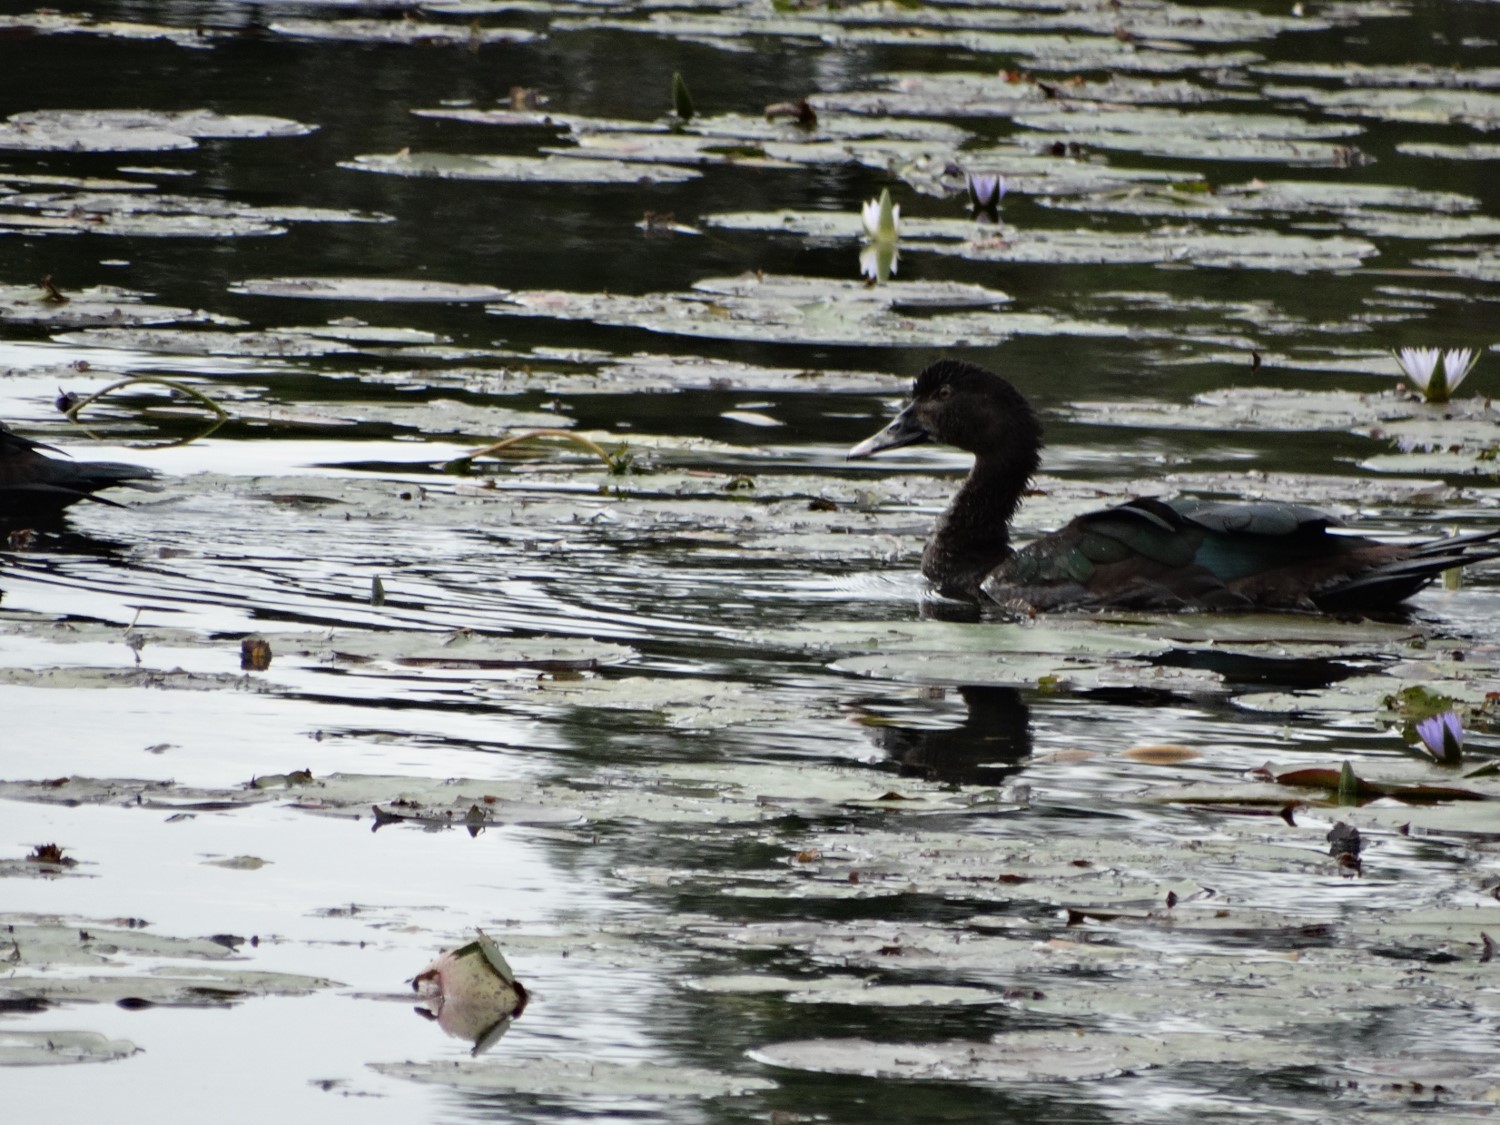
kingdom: Animalia
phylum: Chordata
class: Aves
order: Anseriformes
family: Anatidae
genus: Cairina
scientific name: Cairina moschata
